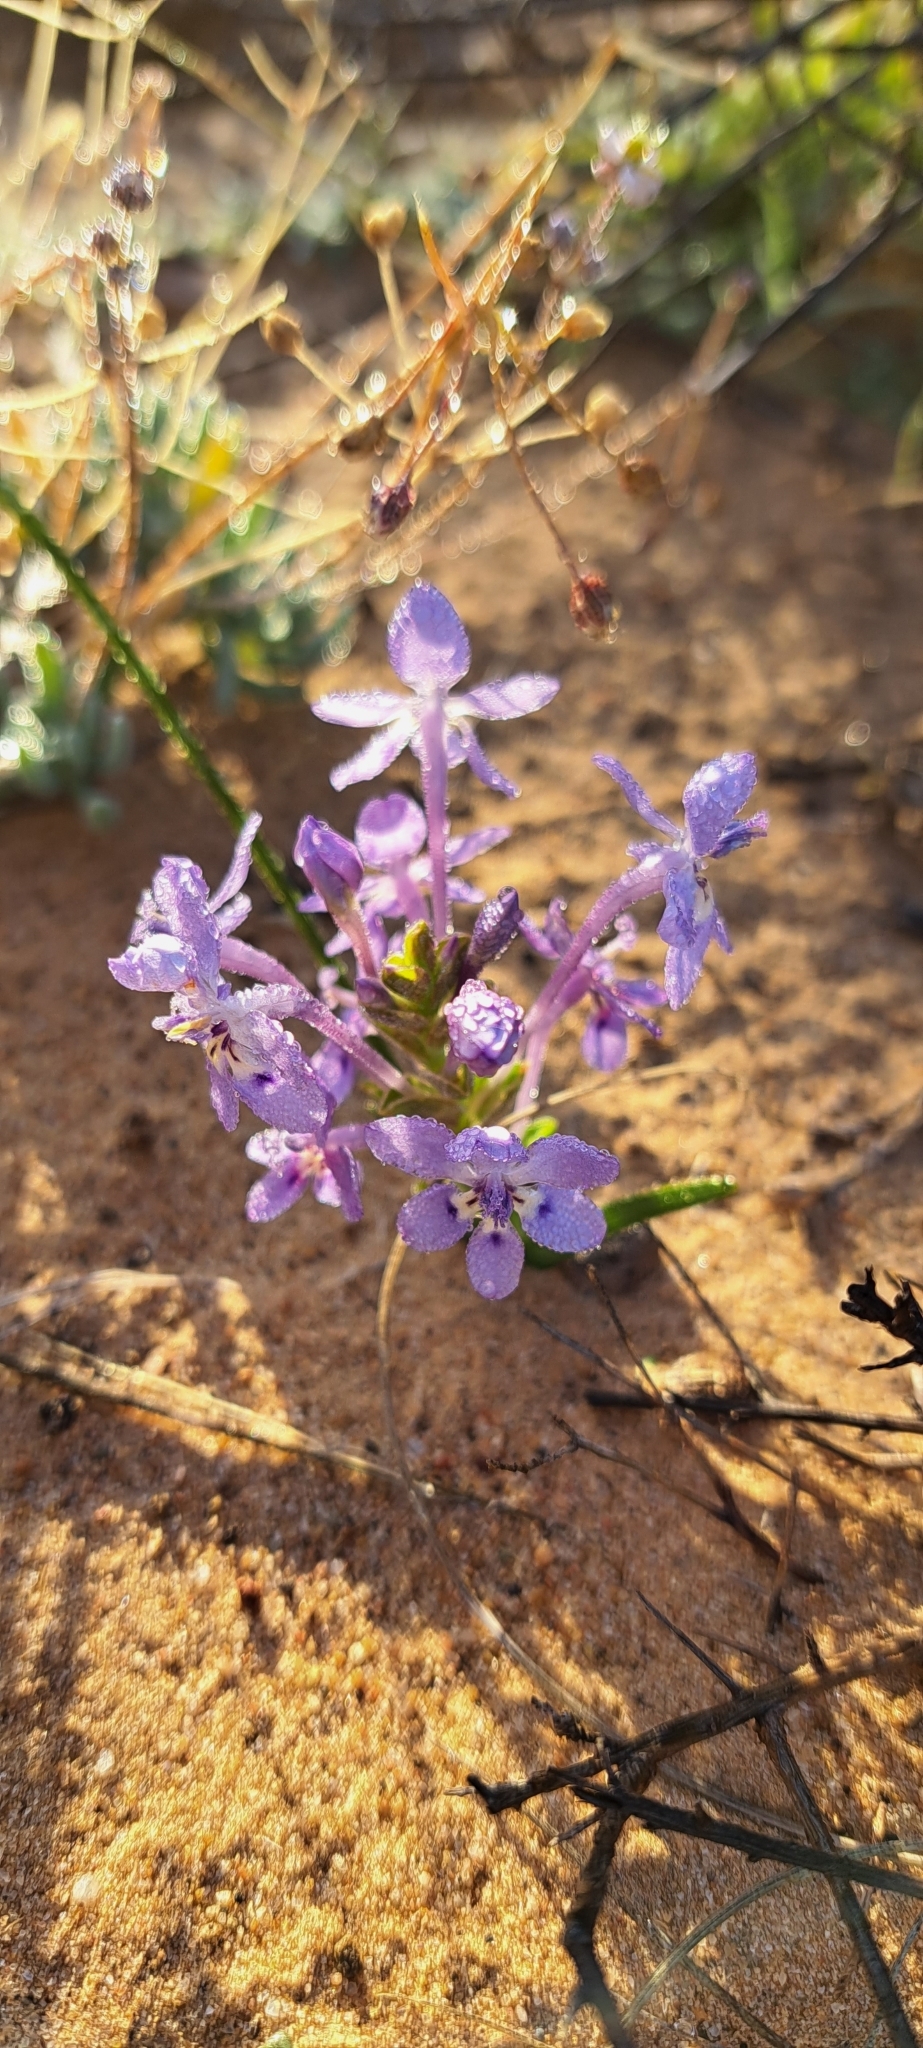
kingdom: Plantae
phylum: Tracheophyta
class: Liliopsida
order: Asparagales
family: Iridaceae
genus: Lapeirousia
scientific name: Lapeirousia pyramidalis
